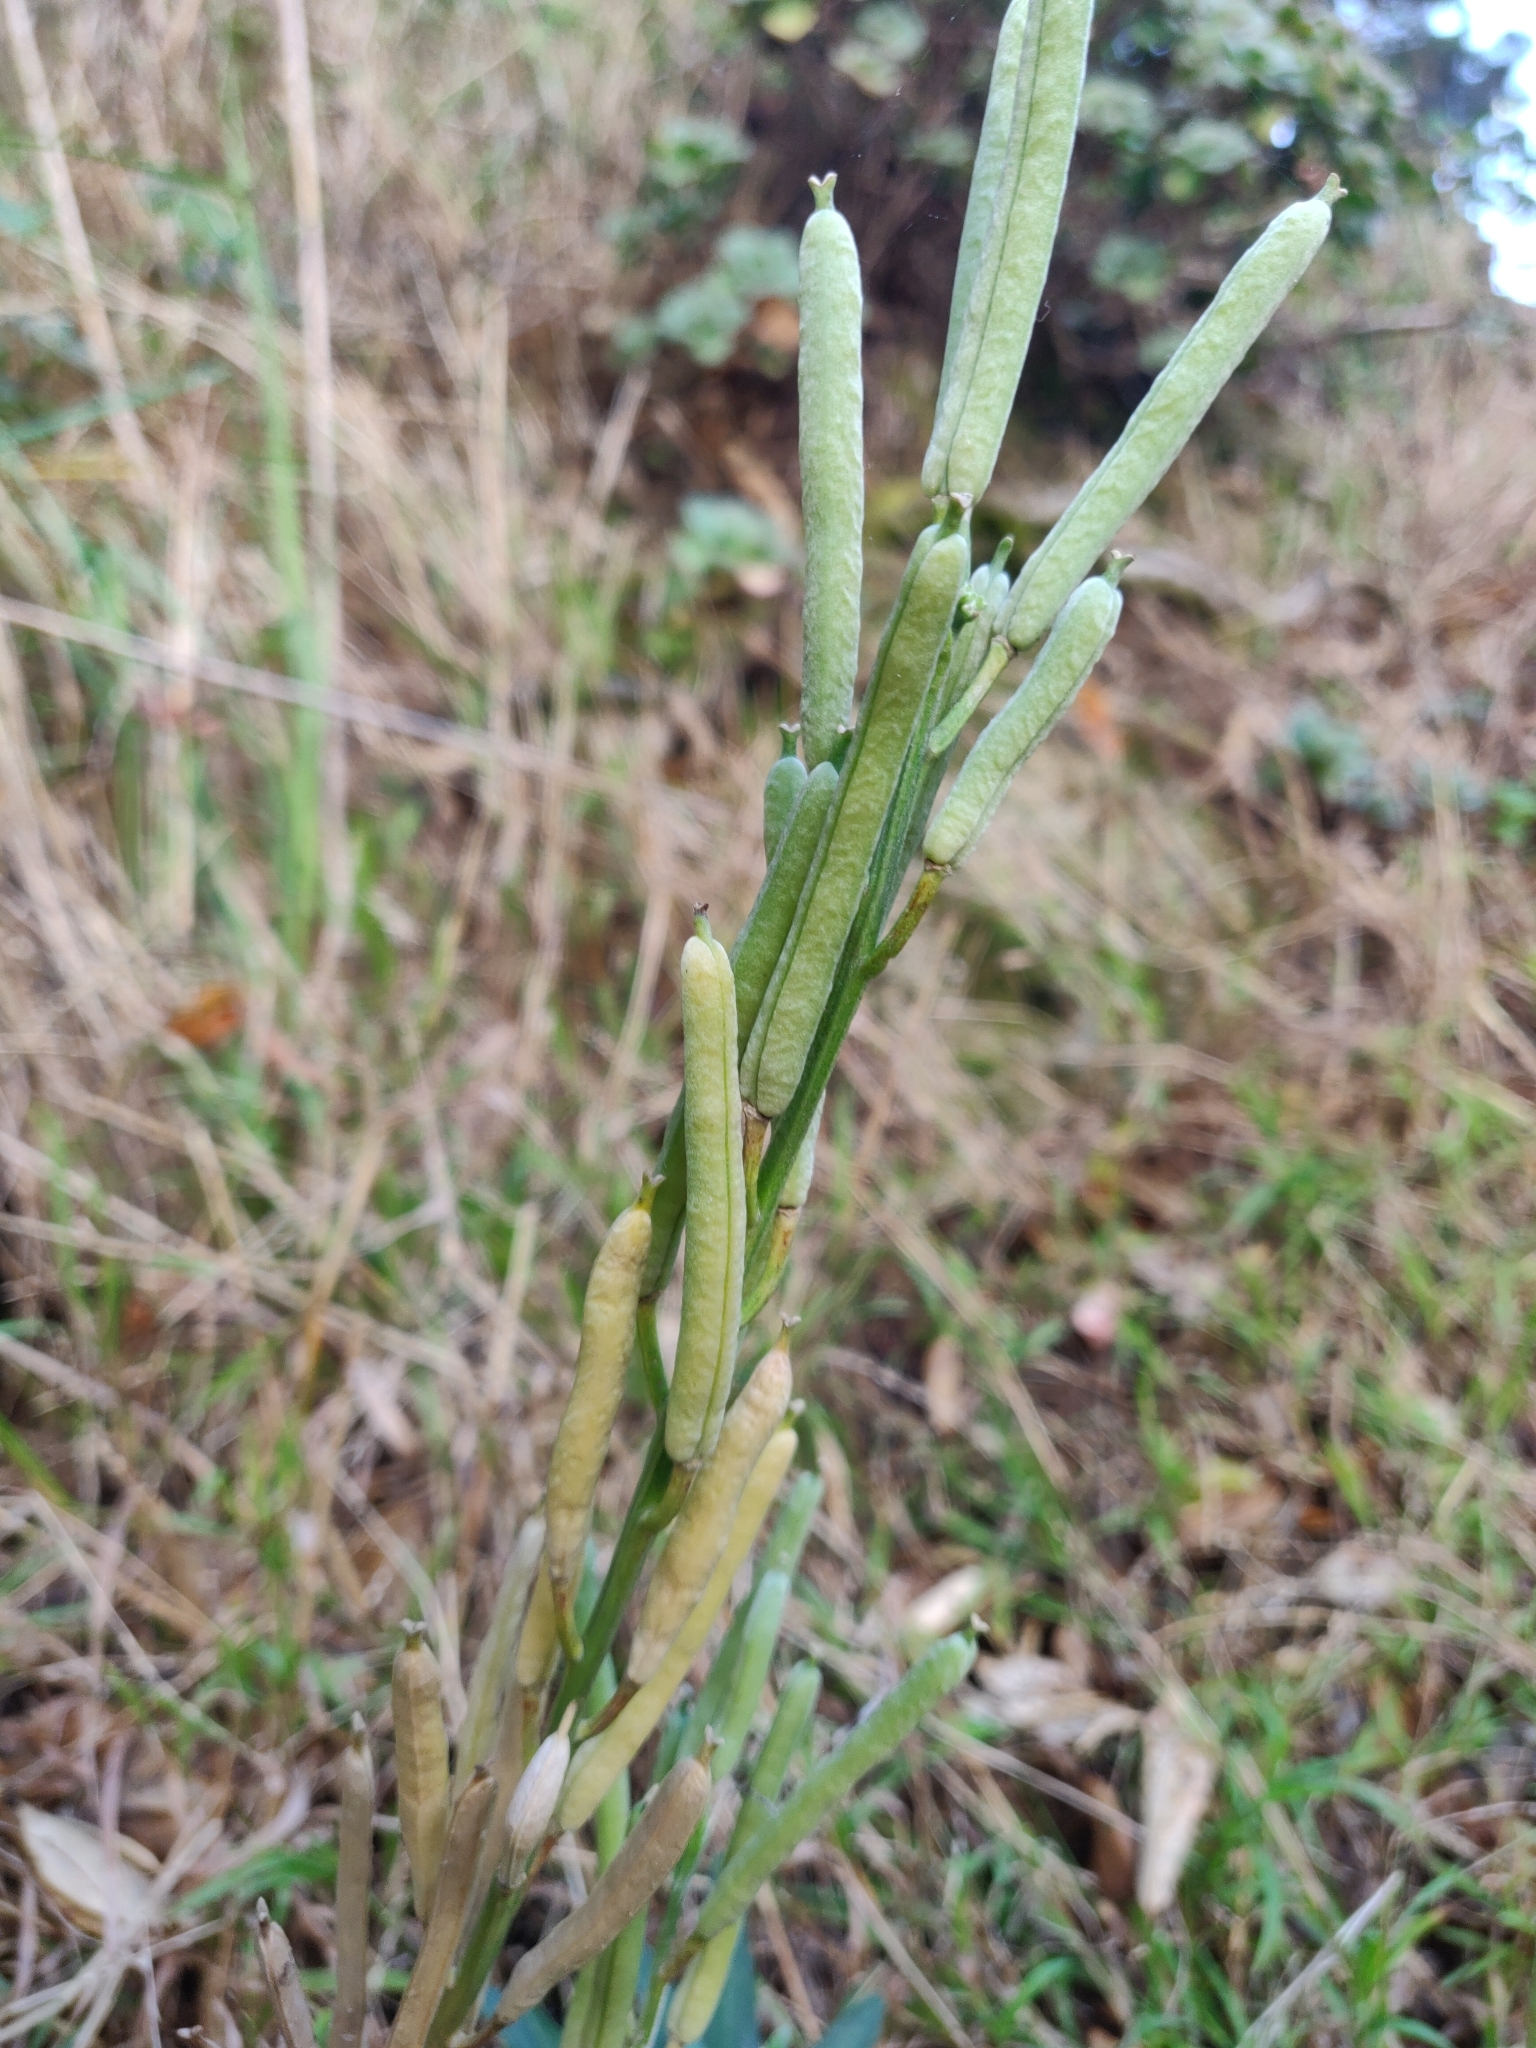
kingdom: Plantae
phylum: Tracheophyta
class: Magnoliopsida
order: Brassicales
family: Brassicaceae
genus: Erysimum
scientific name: Erysimum cheiri
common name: Wallflower
